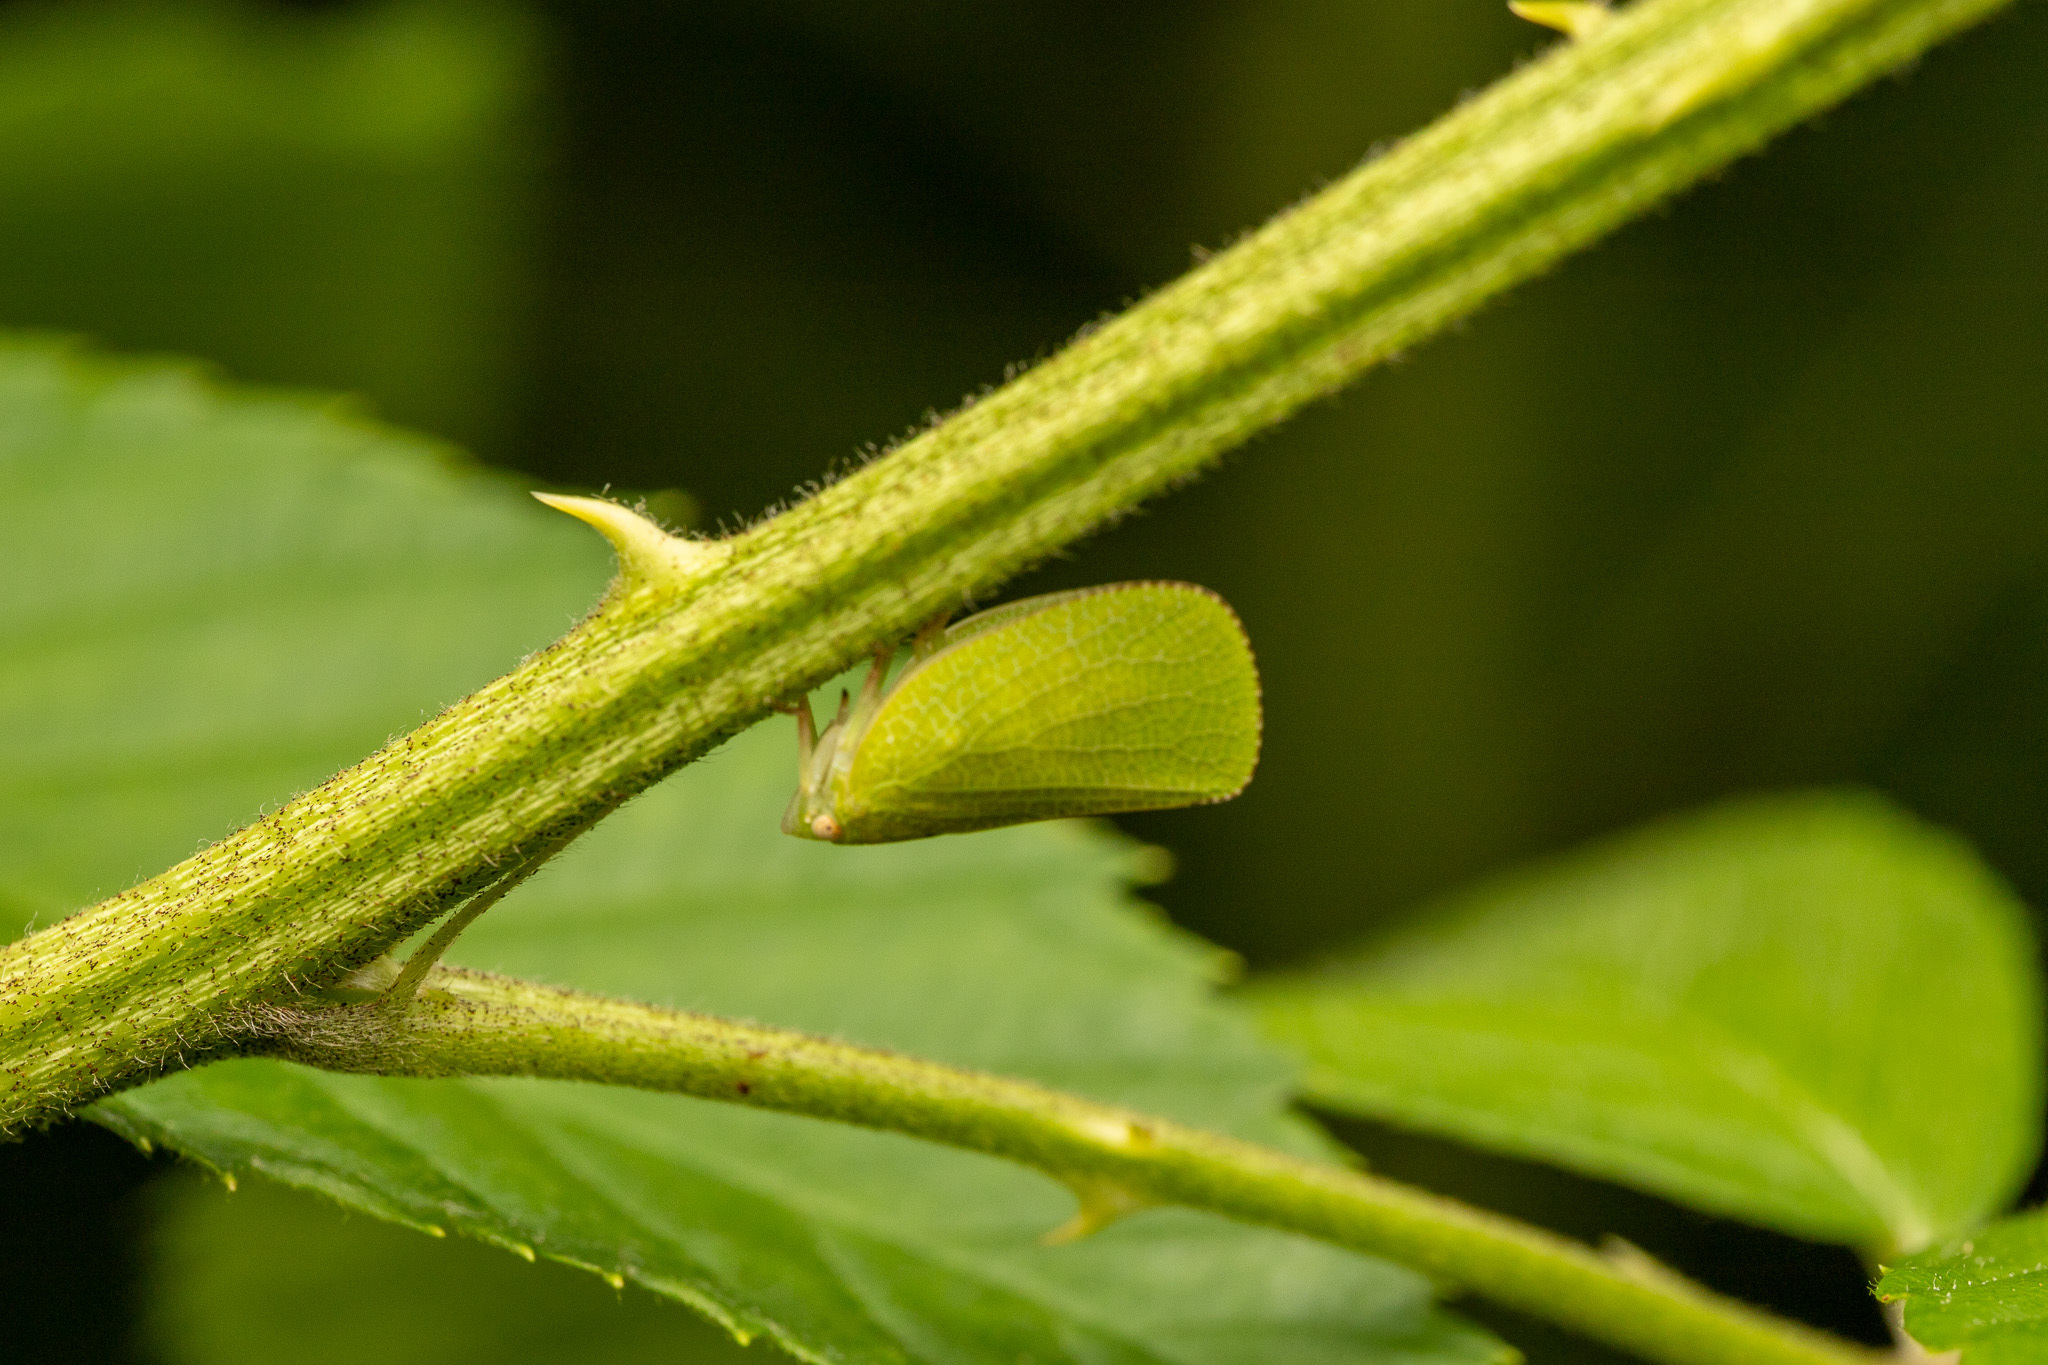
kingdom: Animalia
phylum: Arthropoda
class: Insecta
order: Hemiptera
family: Acanaloniidae
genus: Acanalonia
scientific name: Acanalonia conica
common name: Green cone-headed planthopper
